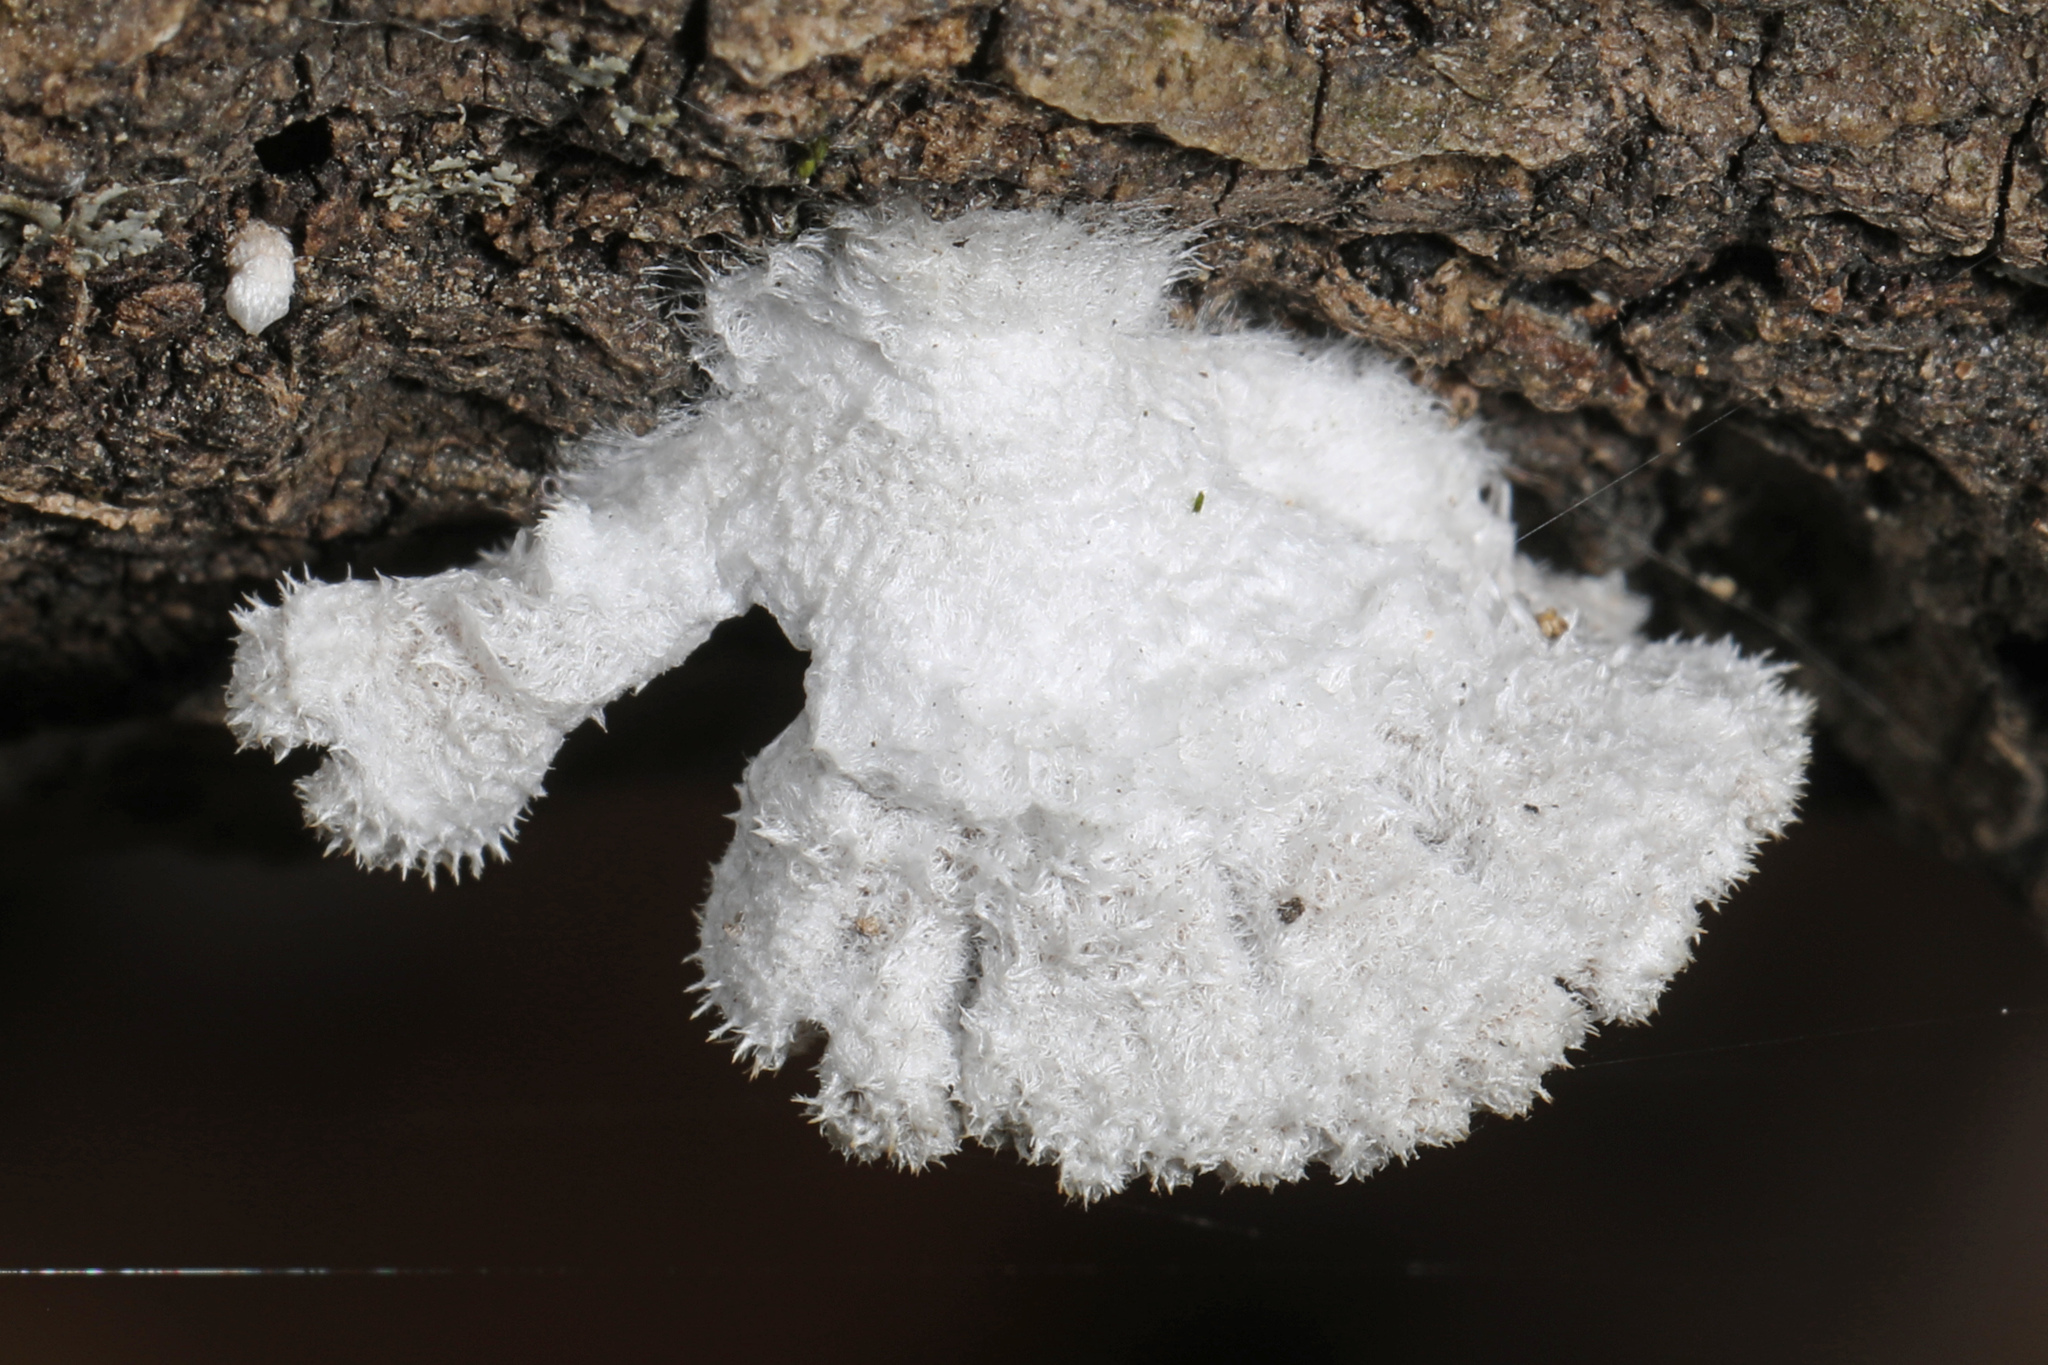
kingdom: Fungi
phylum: Basidiomycota
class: Agaricomycetes
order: Agaricales
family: Schizophyllaceae
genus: Schizophyllum
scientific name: Schizophyllum commune
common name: Common porecrust
